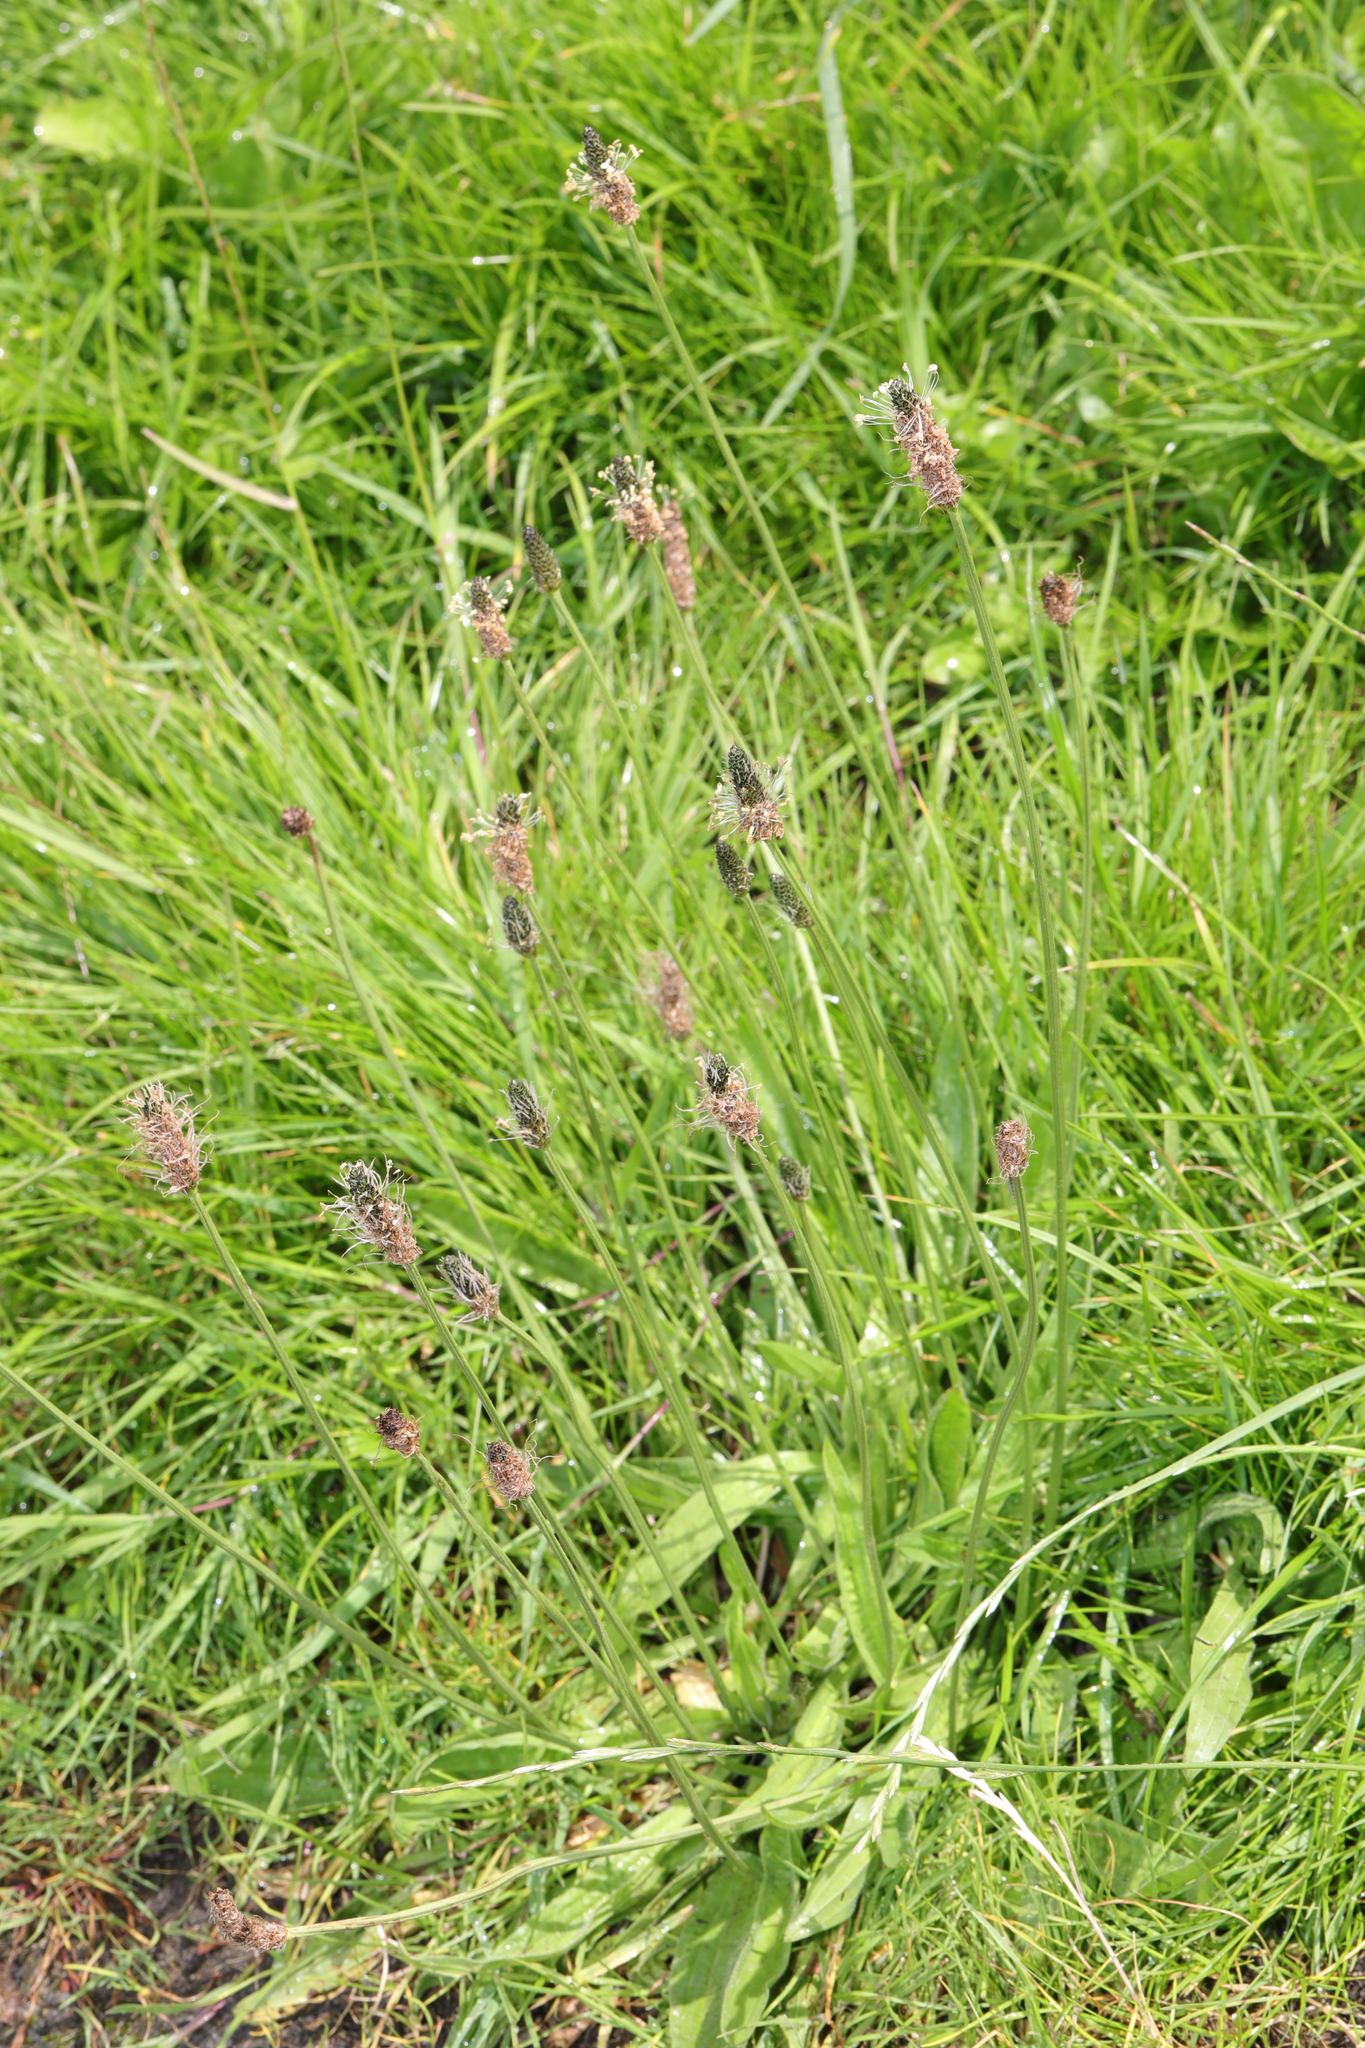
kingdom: Plantae
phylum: Tracheophyta
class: Magnoliopsida
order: Lamiales
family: Plantaginaceae
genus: Plantago
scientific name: Plantago lanceolata
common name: Ribwort plantain
